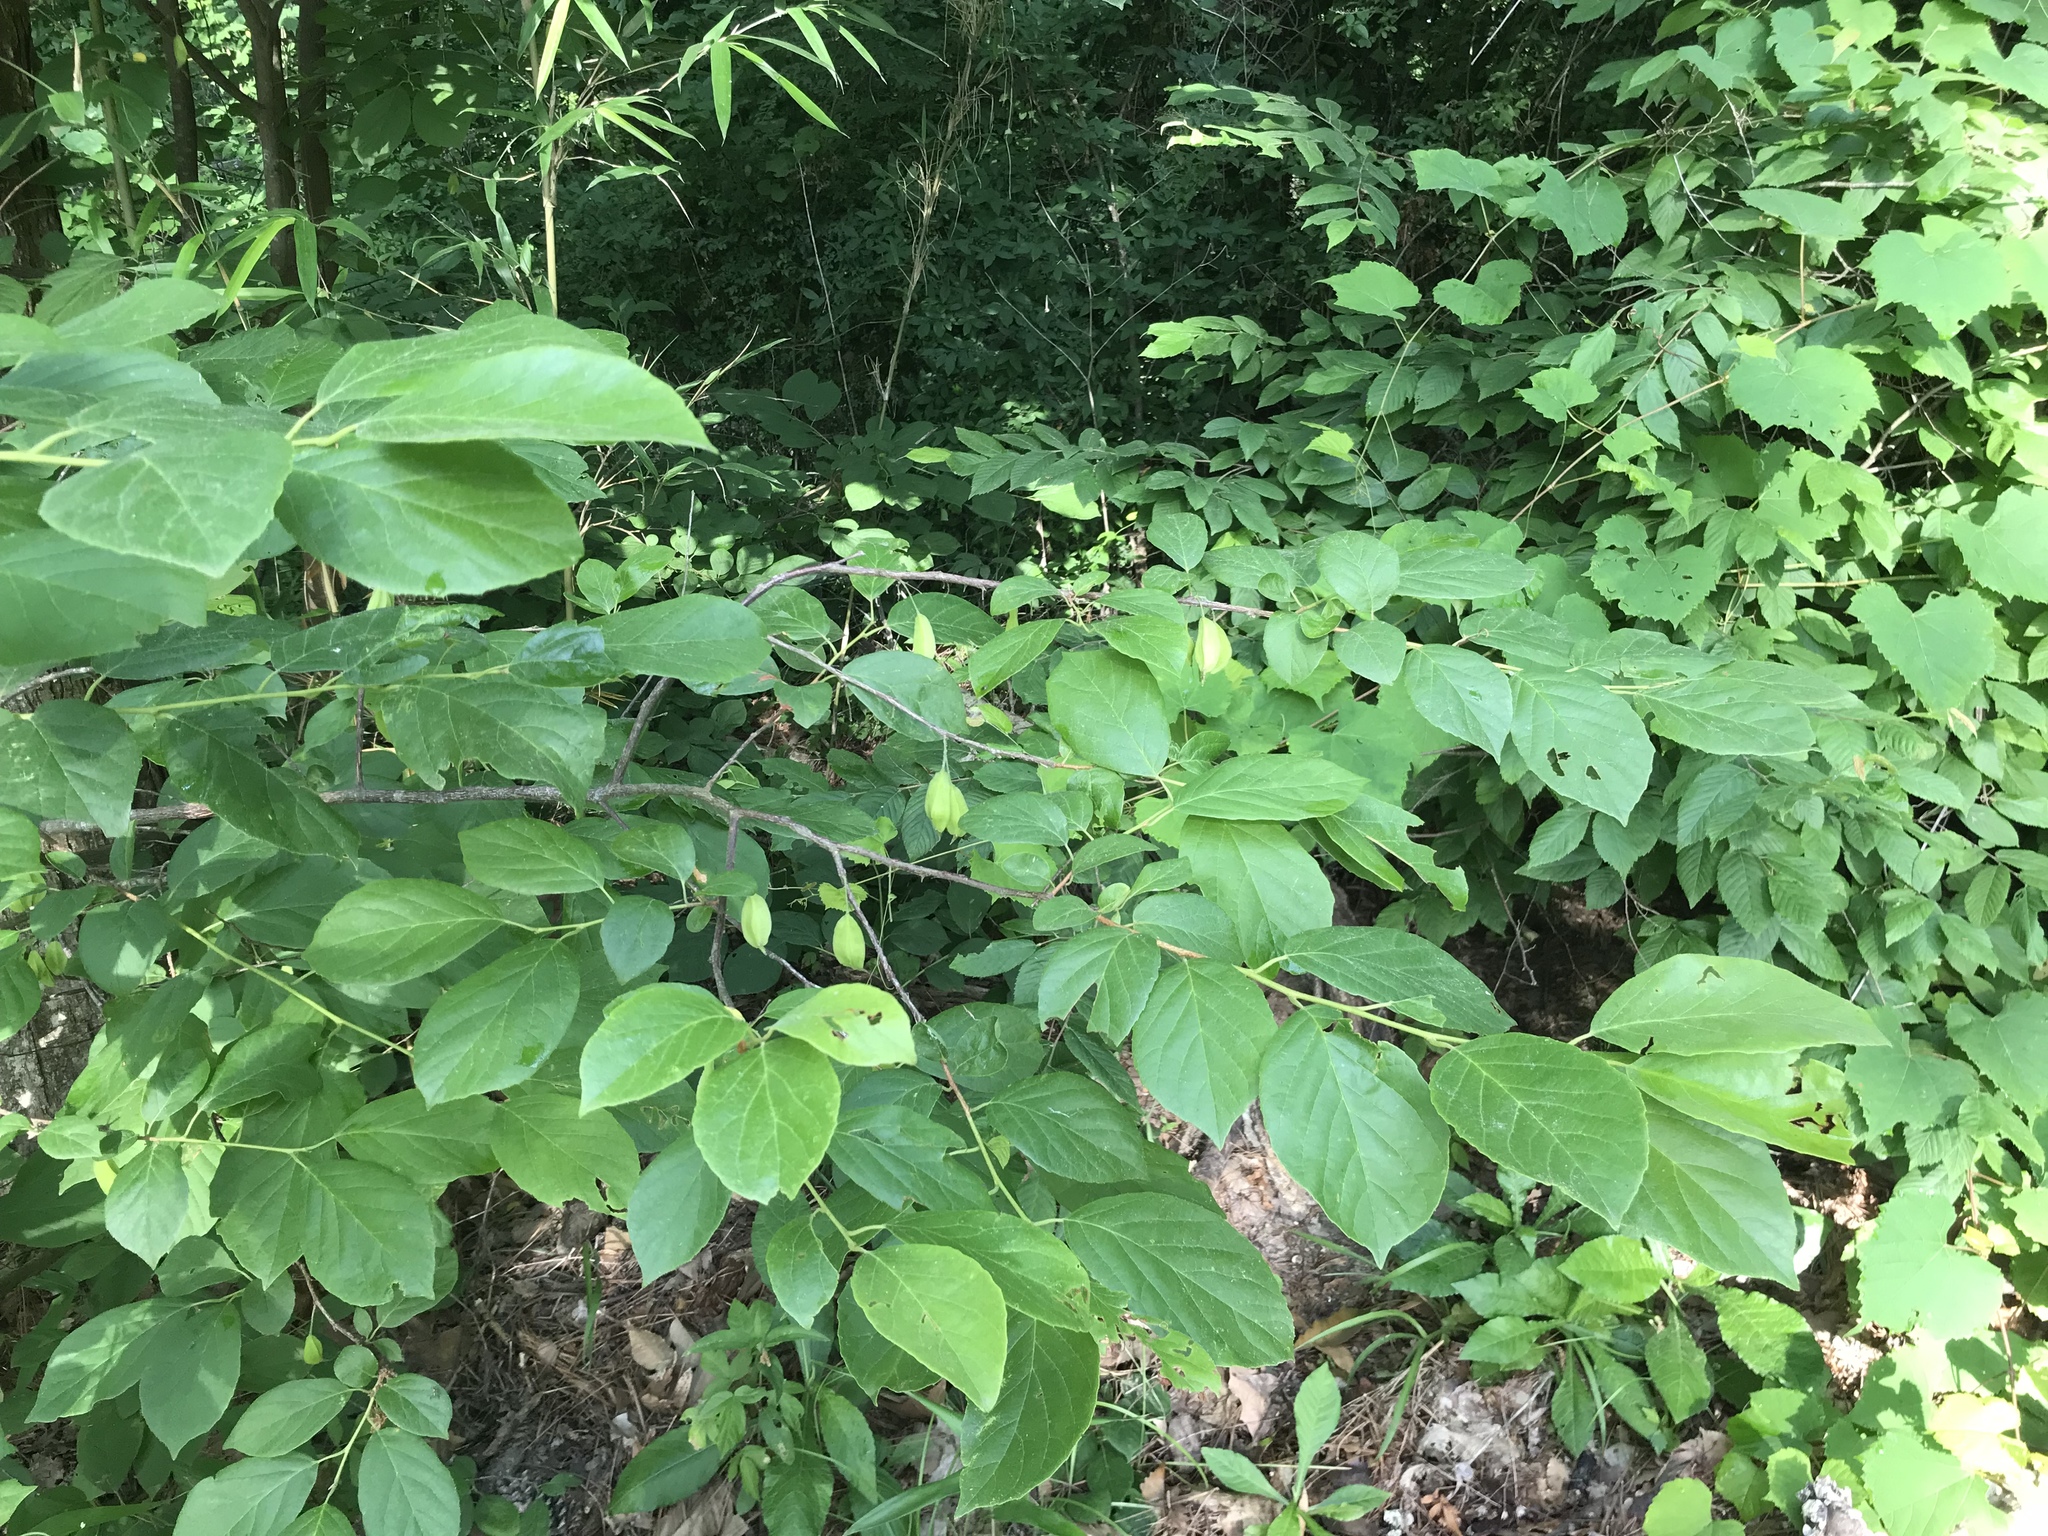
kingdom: Plantae
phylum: Tracheophyta
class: Magnoliopsida
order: Ericales
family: Styracaceae
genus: Halesia
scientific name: Halesia diptera
